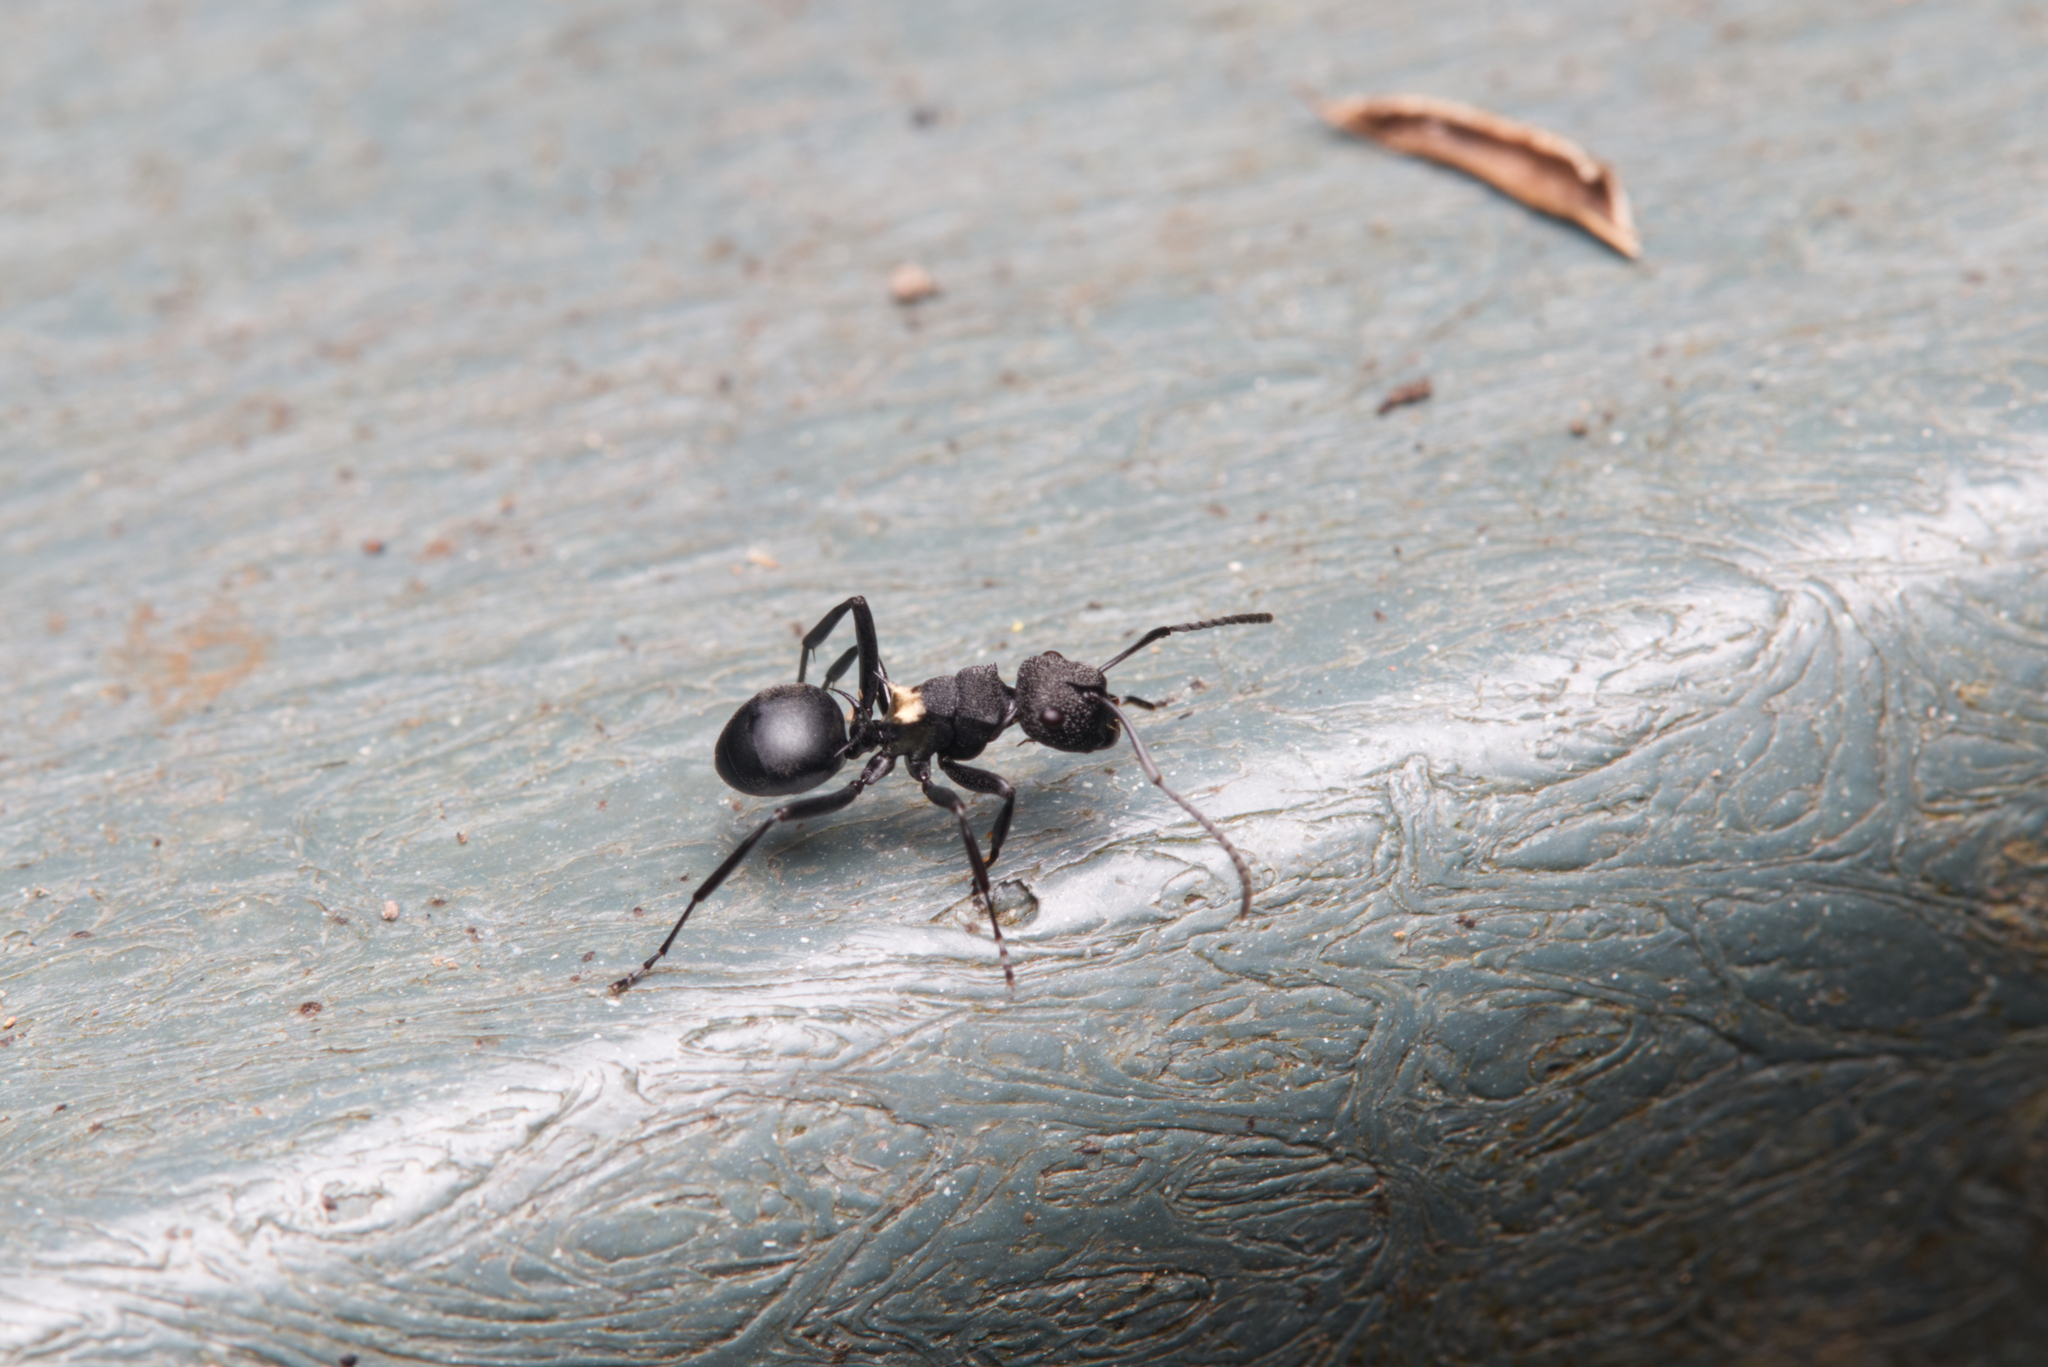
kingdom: Animalia
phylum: Arthropoda
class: Insecta
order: Hymenoptera
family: Formicidae
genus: Polyrhachis
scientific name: Polyrhachis machaon
